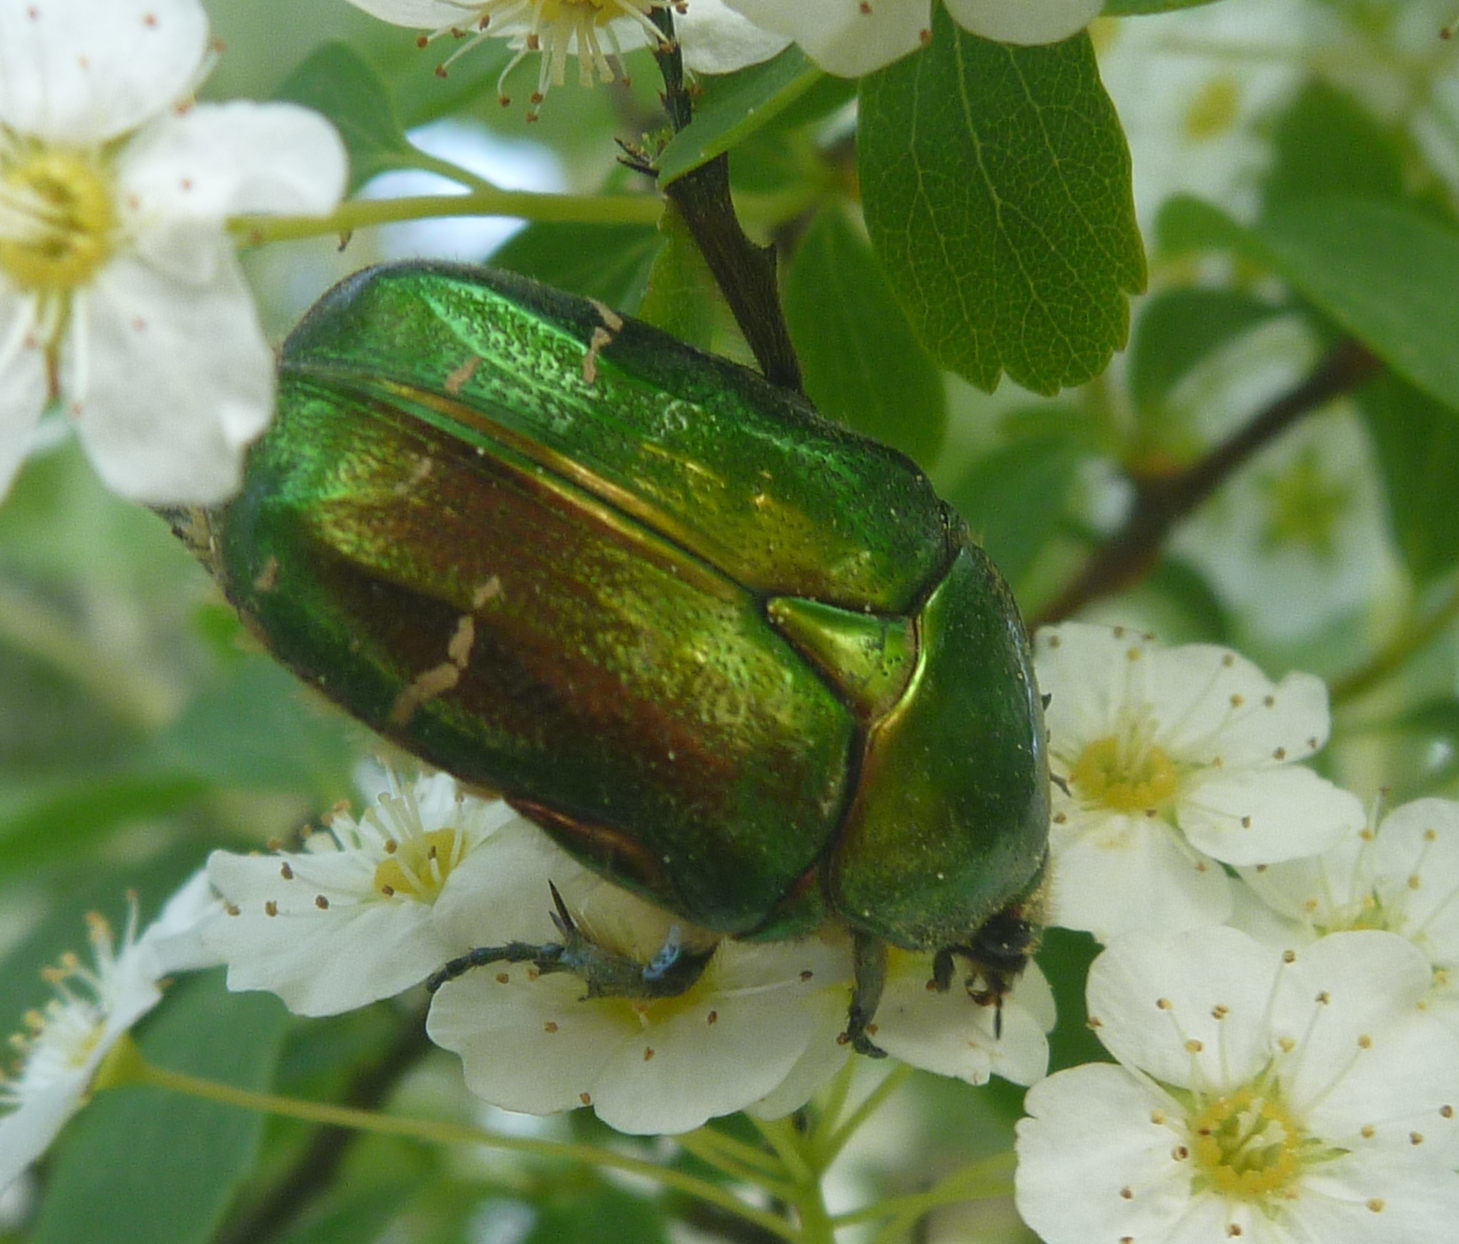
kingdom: Animalia
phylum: Arthropoda
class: Insecta
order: Coleoptera
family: Scarabaeidae
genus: Cetonia
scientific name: Cetonia aurata
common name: Rose chafer
